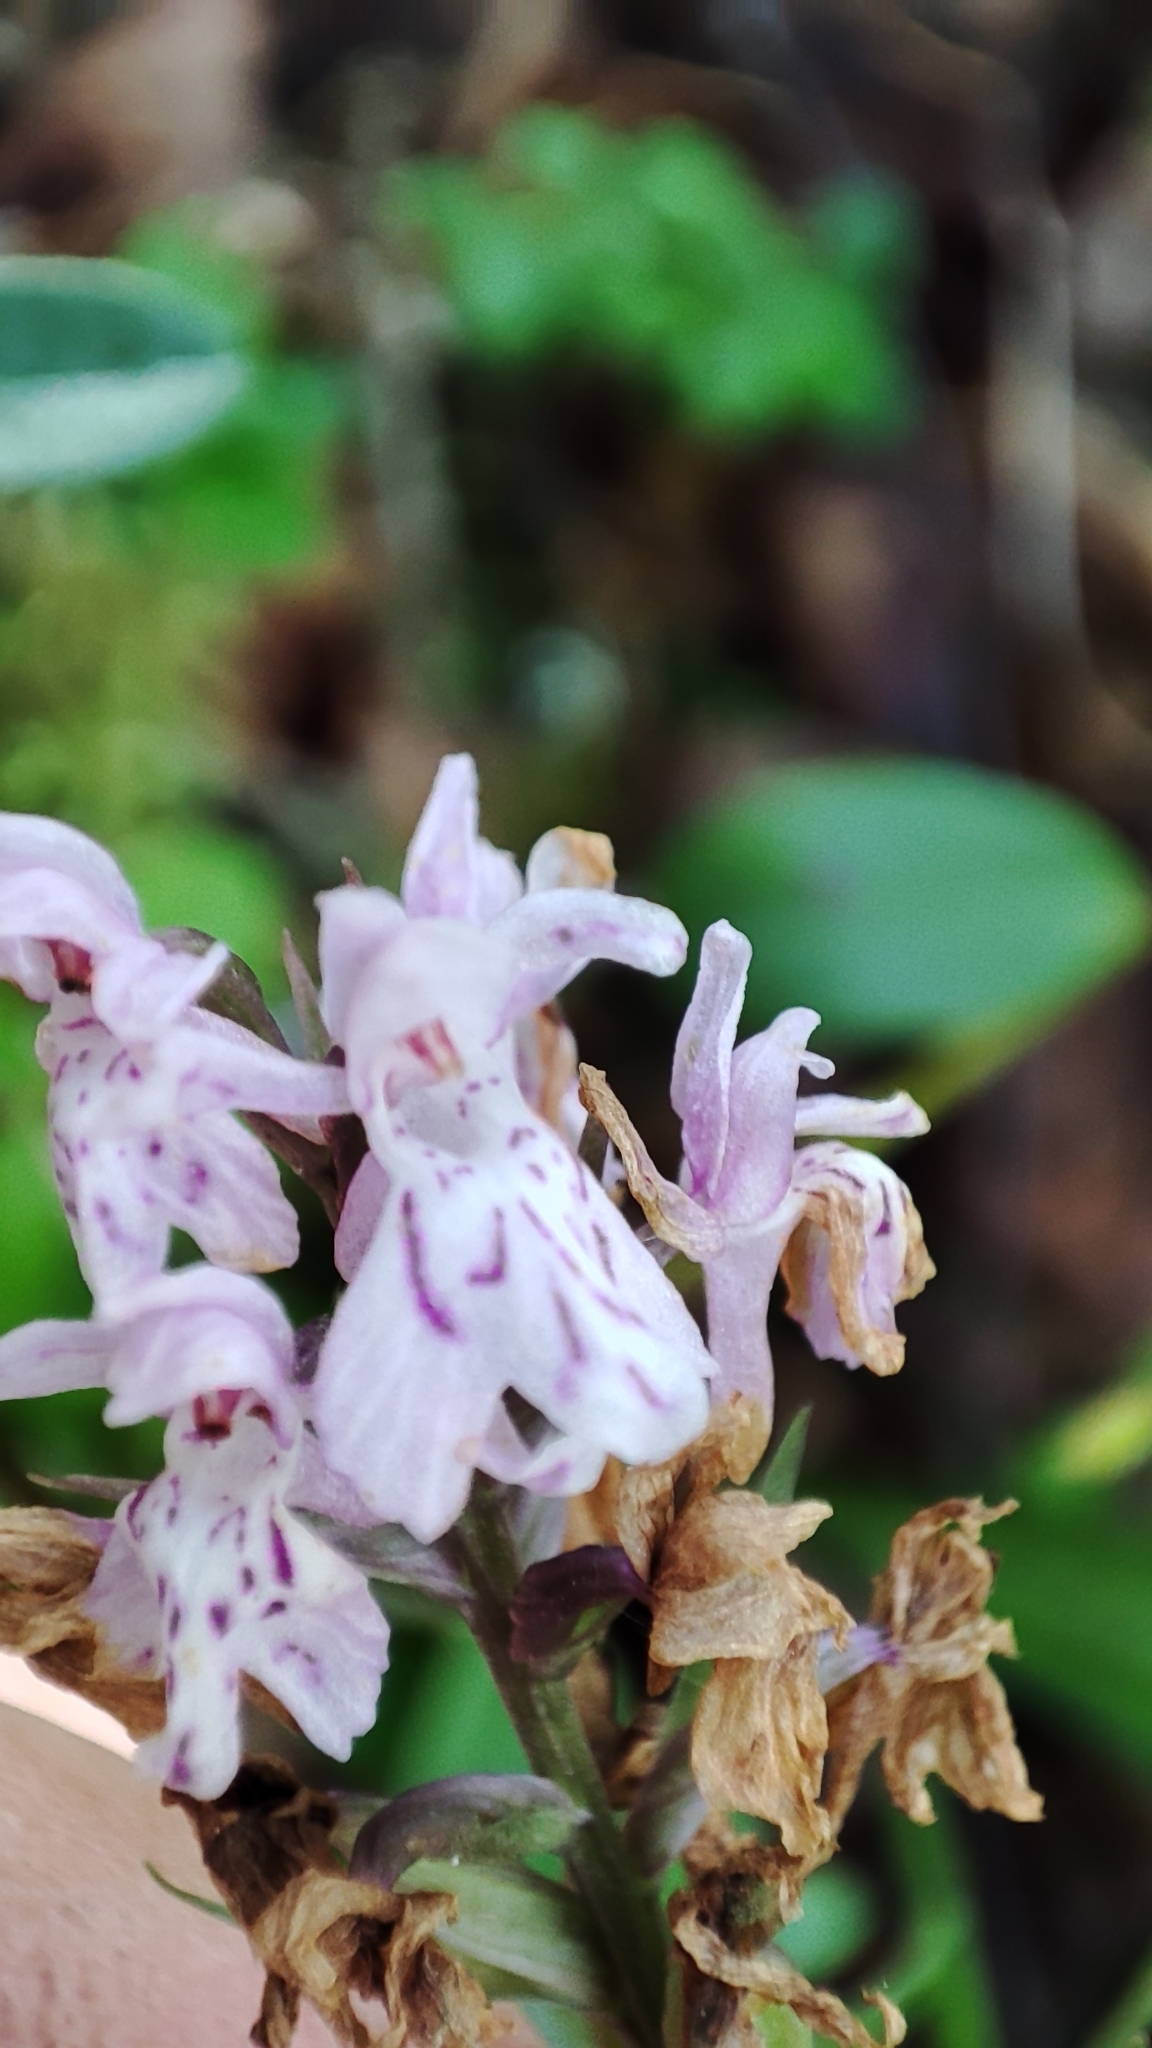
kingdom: Plantae
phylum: Tracheophyta
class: Liliopsida
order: Asparagales
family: Orchidaceae
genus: Dactylorhiza
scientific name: Dactylorhiza maculata
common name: Heath spotted-orchid
